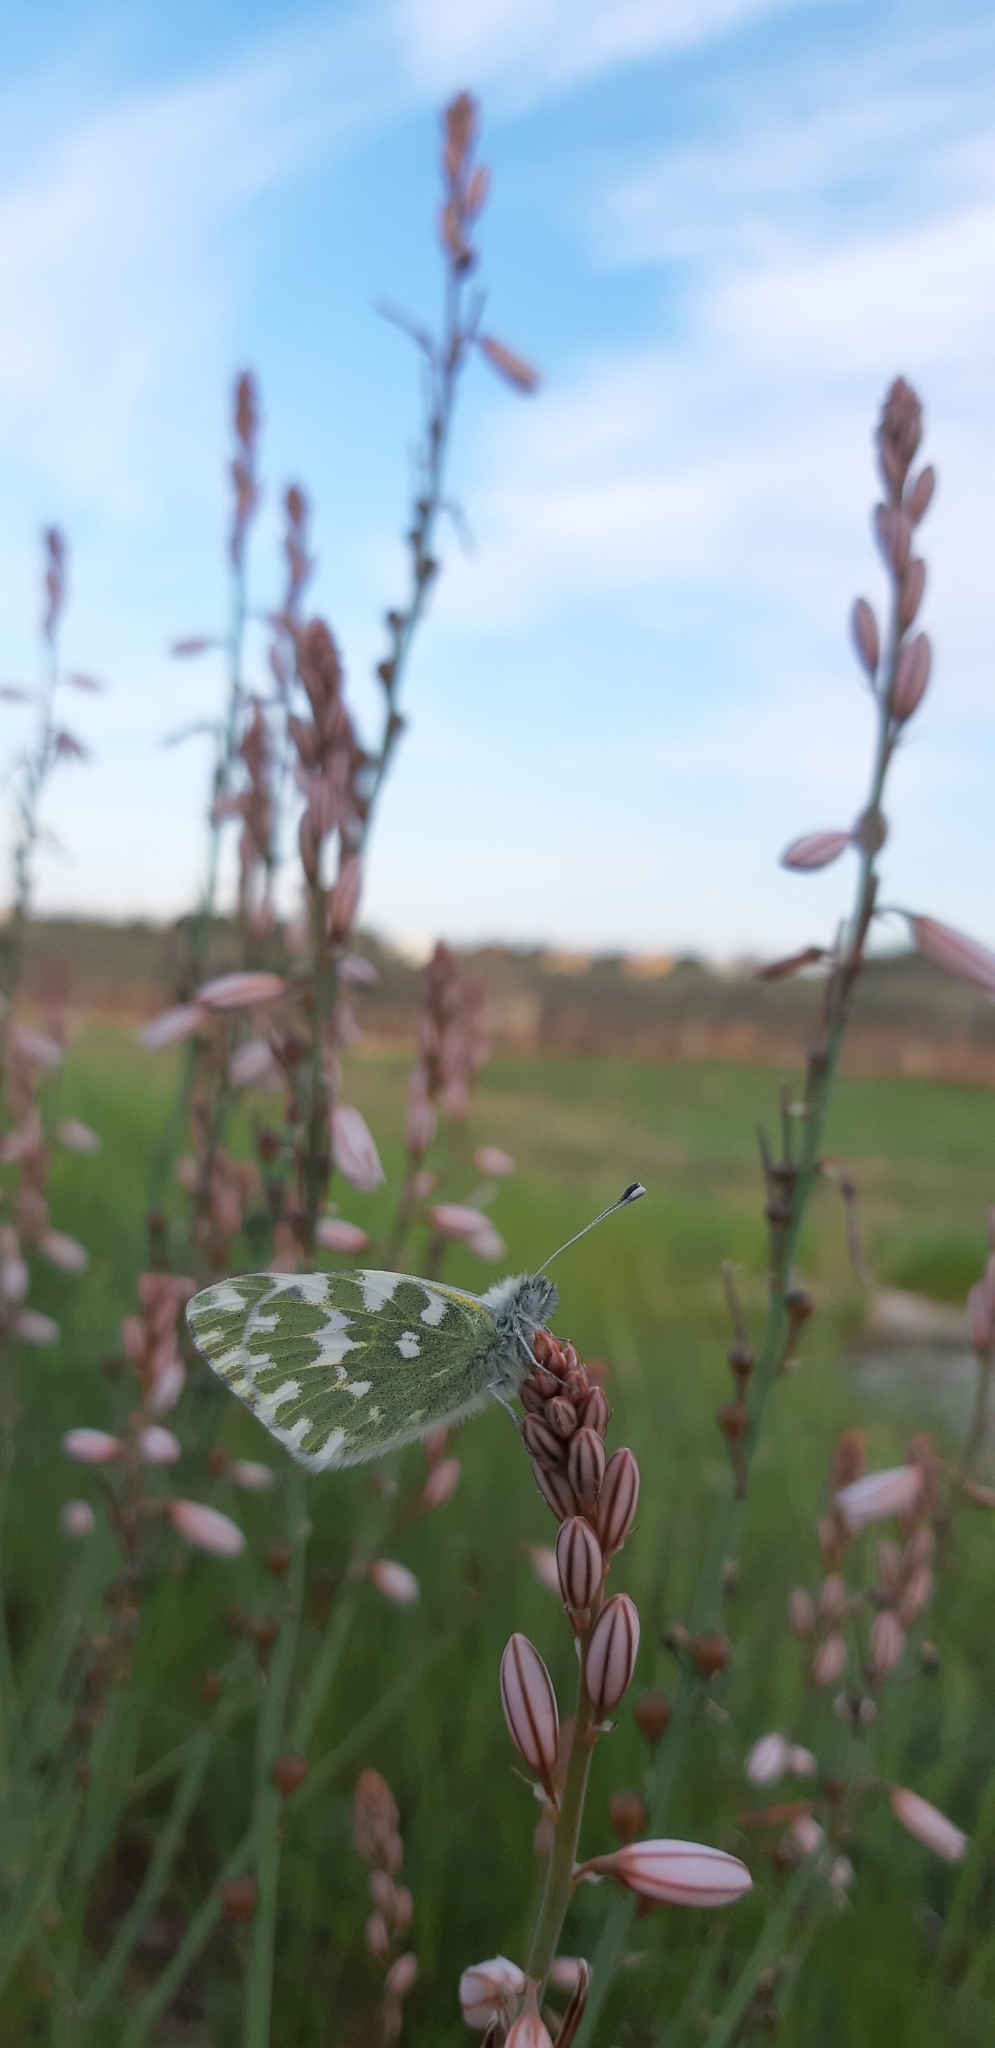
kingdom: Animalia
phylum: Arthropoda
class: Insecta
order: Lepidoptera
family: Pieridae
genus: Pontia
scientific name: Pontia edusa
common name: Eastern bath white
